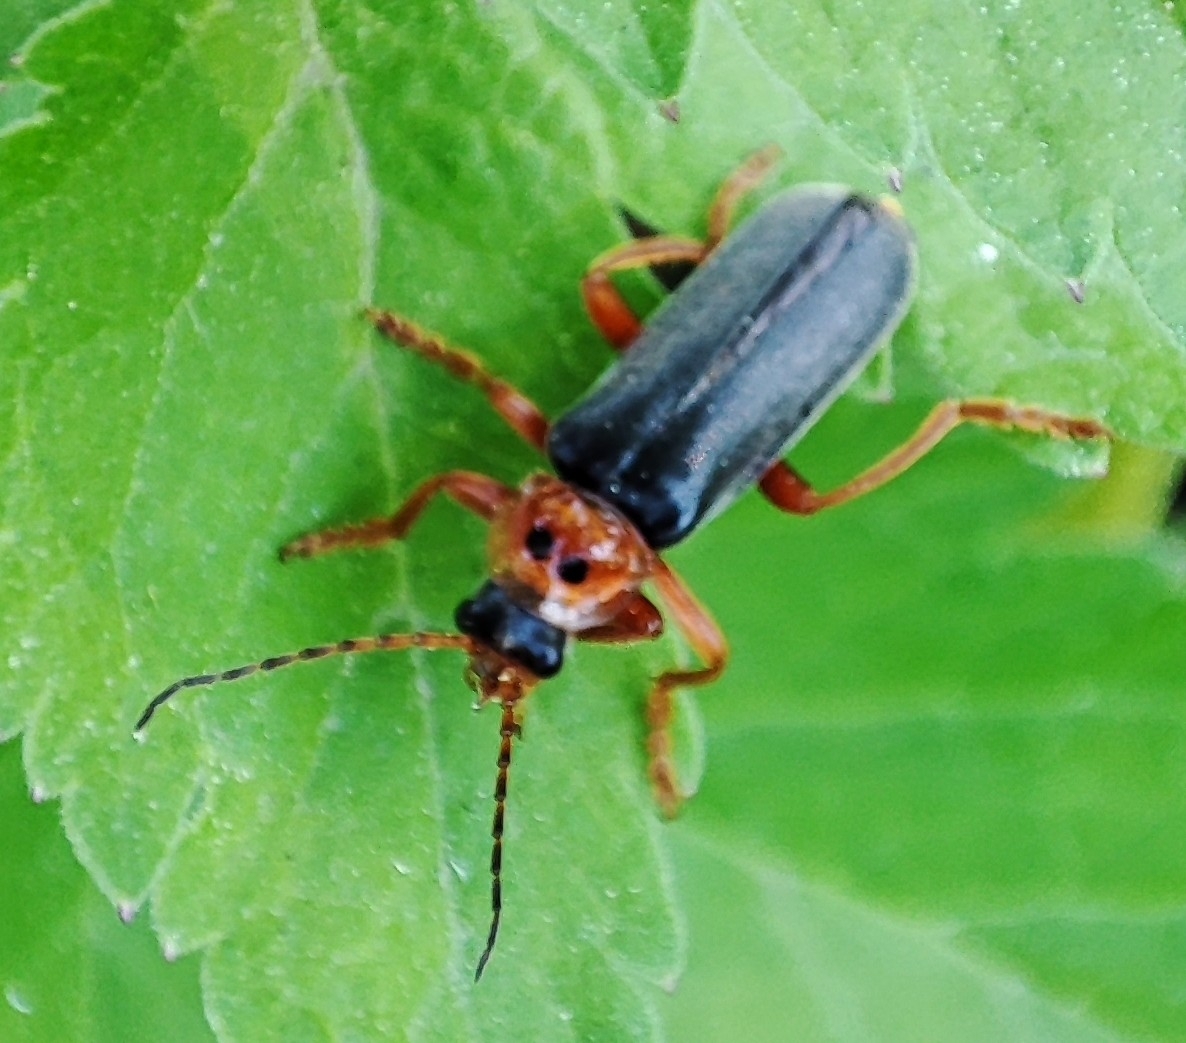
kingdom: Animalia
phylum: Arthropoda
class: Insecta
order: Coleoptera
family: Cantharidae
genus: Cantharis
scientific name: Cantharis annularis
